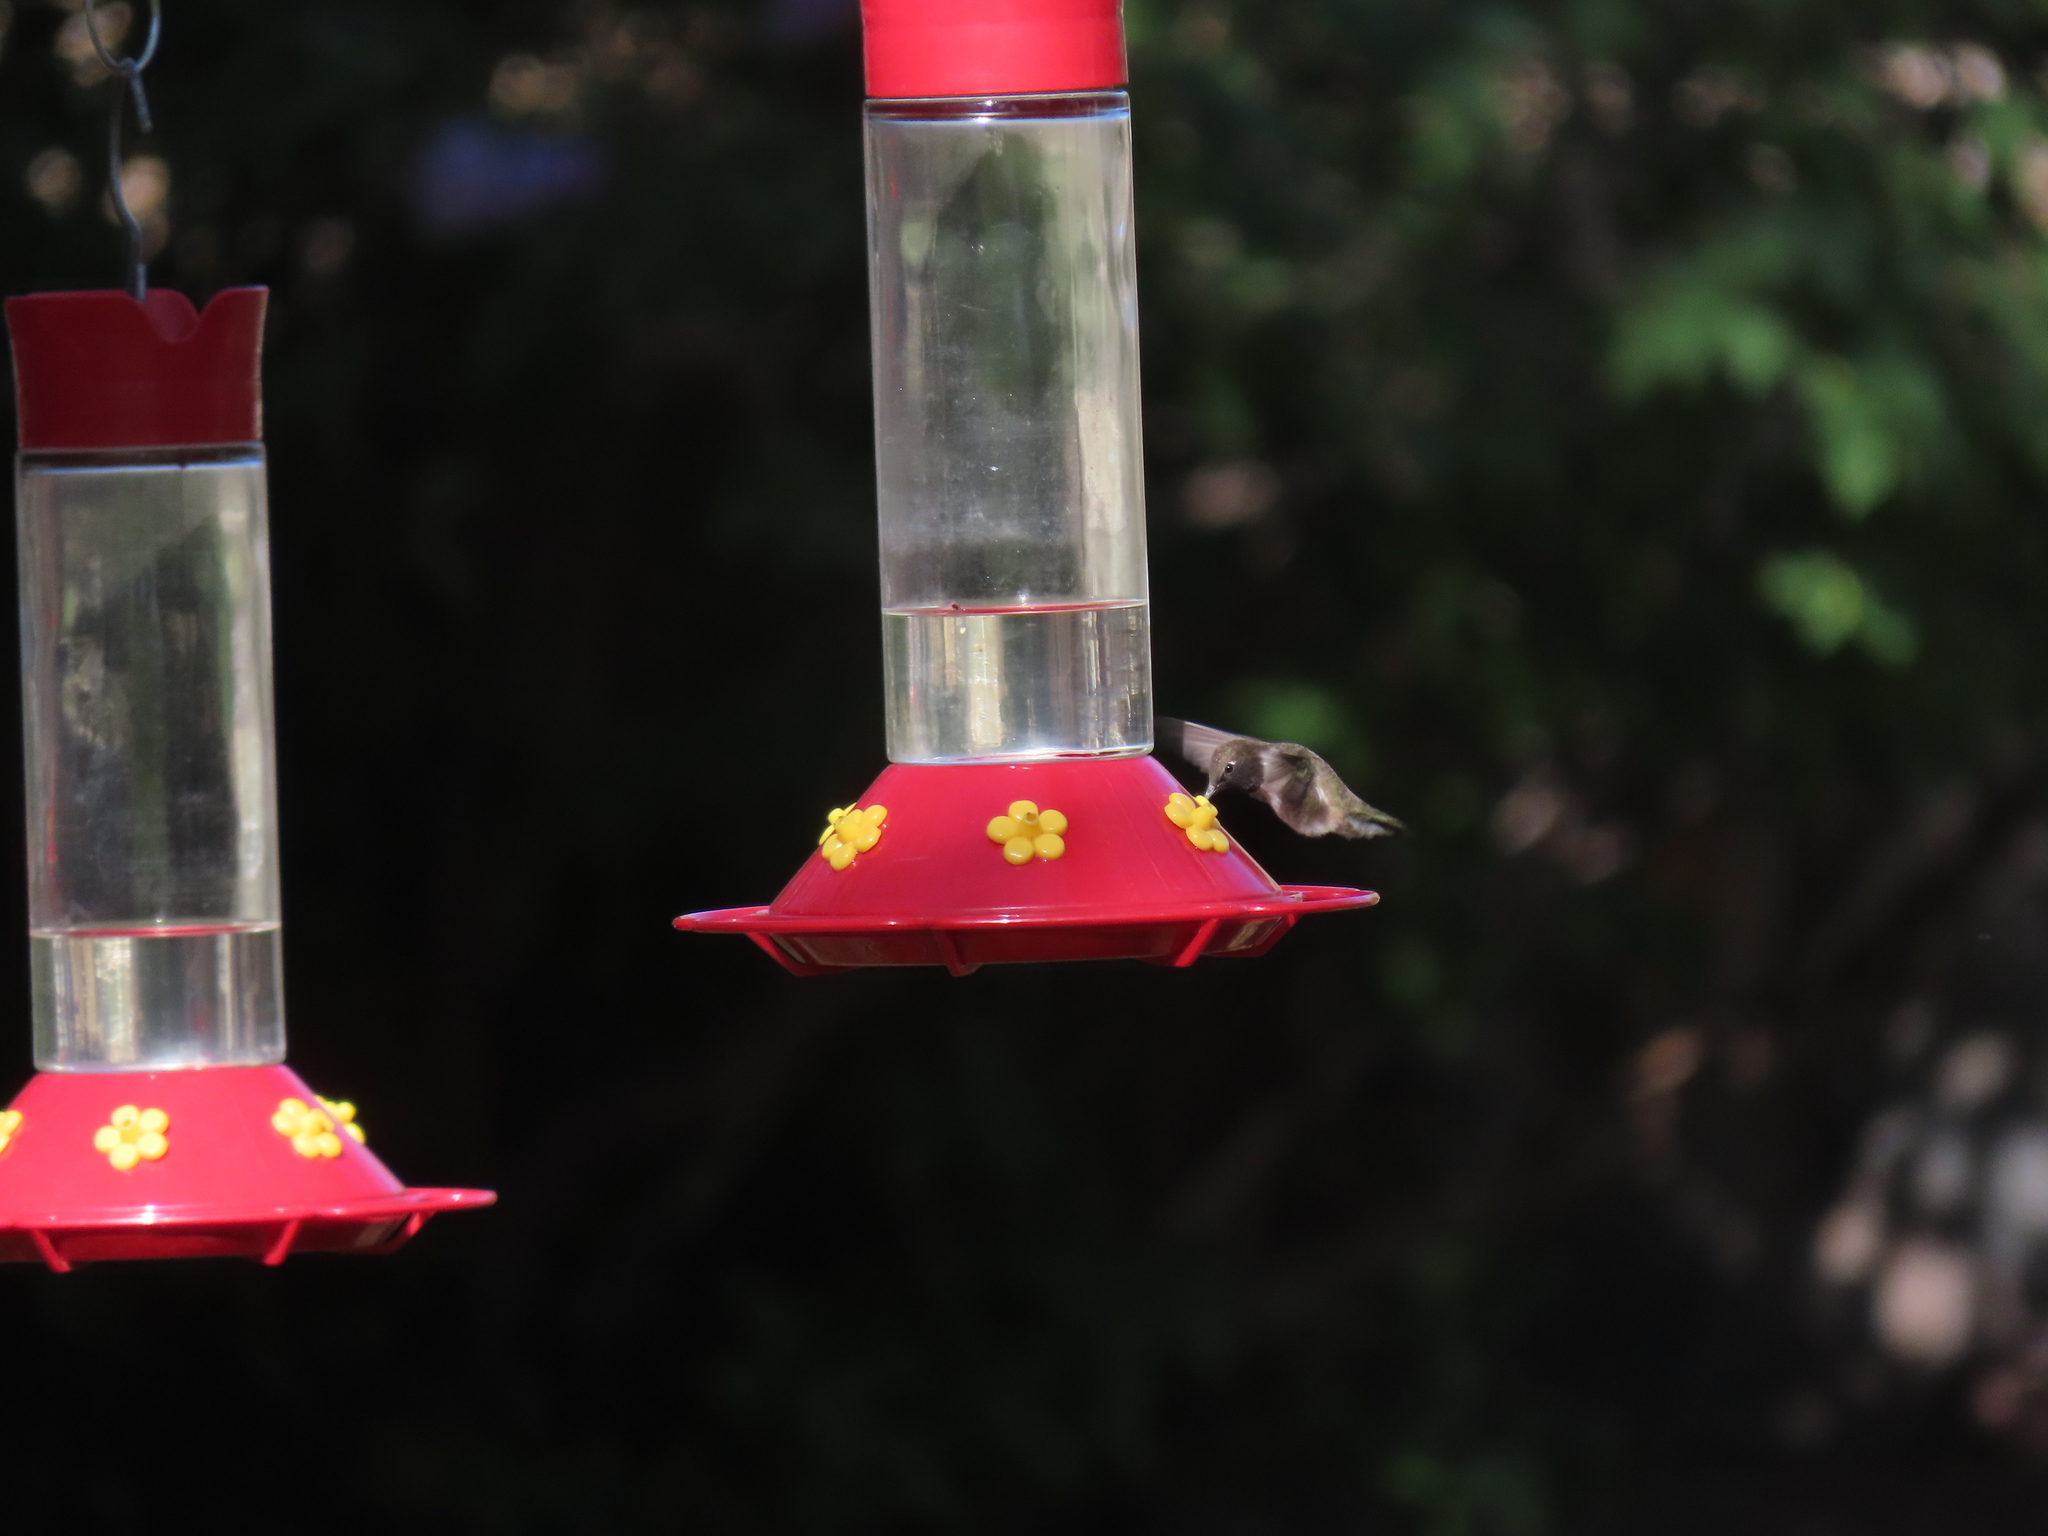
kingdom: Animalia
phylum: Chordata
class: Aves
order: Apodiformes
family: Trochilidae
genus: Archilochus
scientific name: Archilochus alexandri
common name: Black-chinned hummingbird
